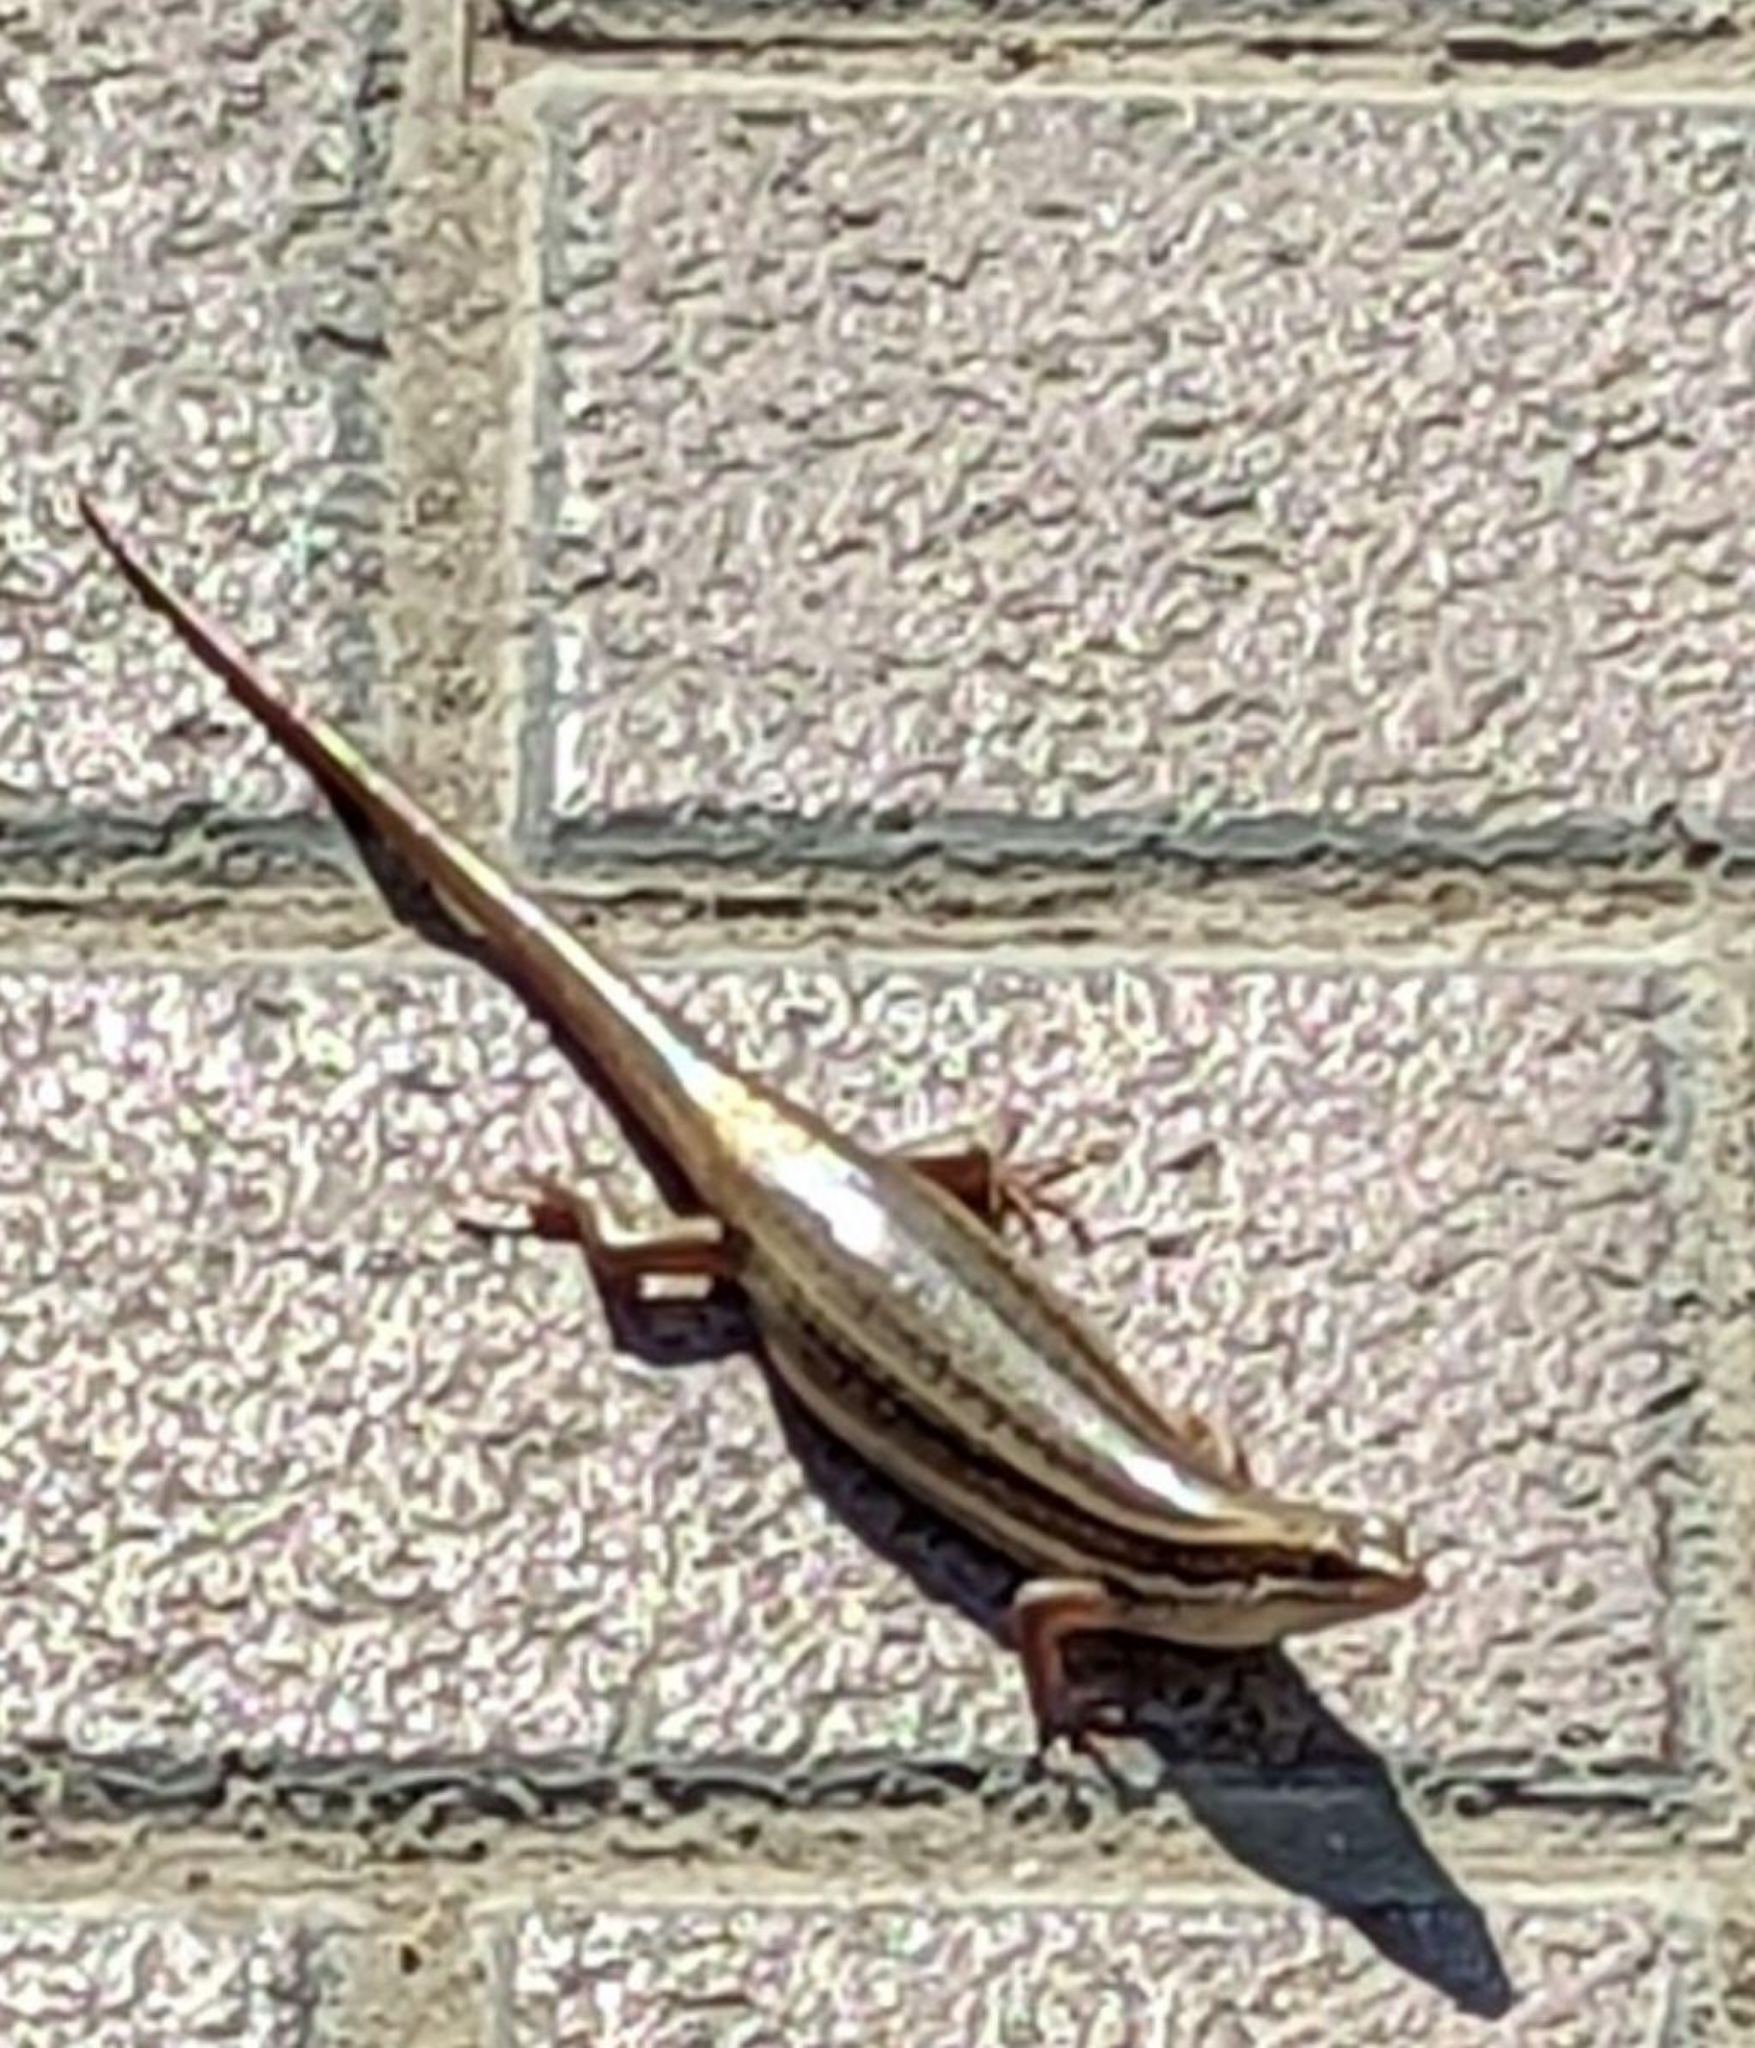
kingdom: Animalia
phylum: Chordata
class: Squamata
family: Scincidae
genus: Heremites
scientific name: Heremites septemtaeniatus
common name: Golden grass mabuya
